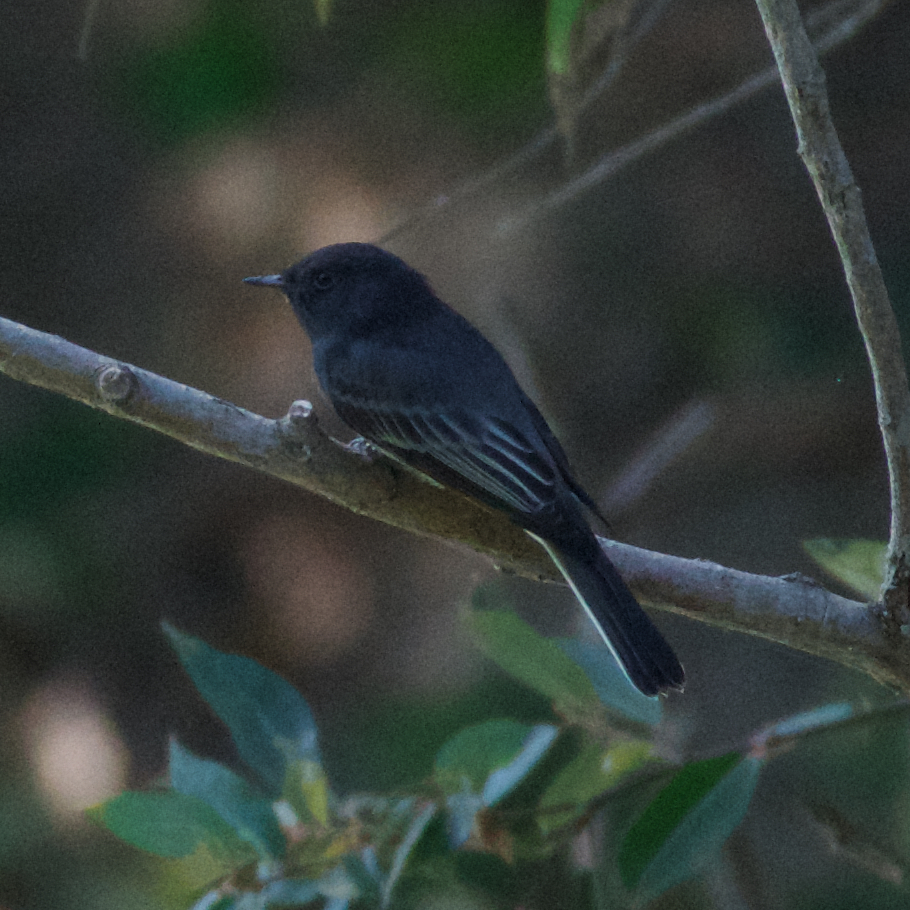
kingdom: Animalia
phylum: Chordata
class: Aves
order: Passeriformes
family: Tyrannidae
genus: Sayornis
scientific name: Sayornis nigricans
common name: Black phoebe
